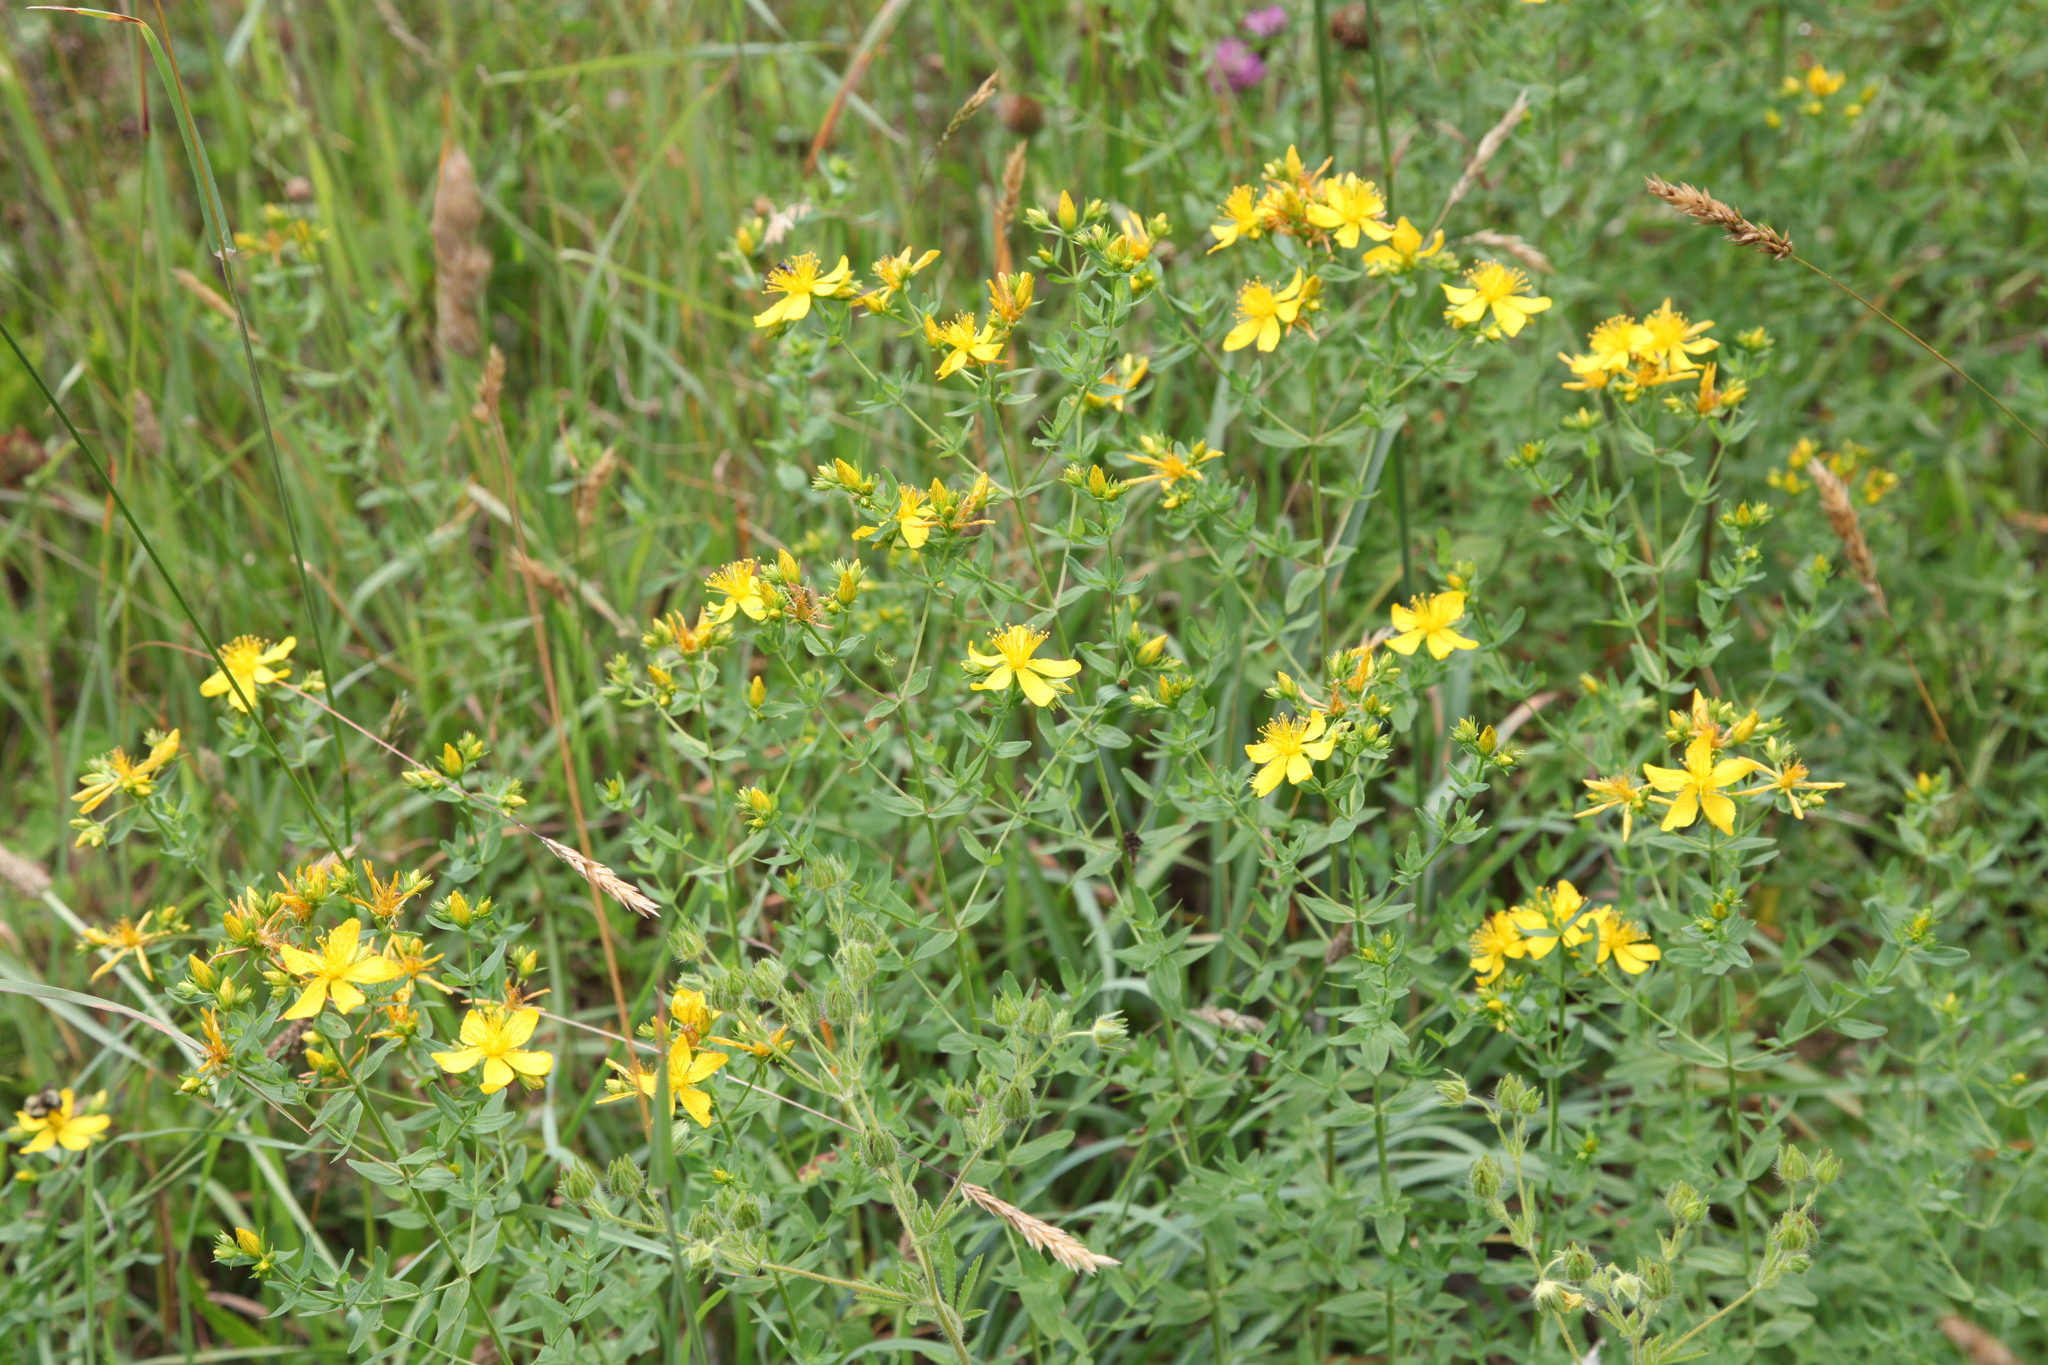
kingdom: Plantae
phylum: Tracheophyta
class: Magnoliopsida
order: Malpighiales
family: Hypericaceae
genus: Hypericum
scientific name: Hypericum perforatum
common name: Common st. johnswort
